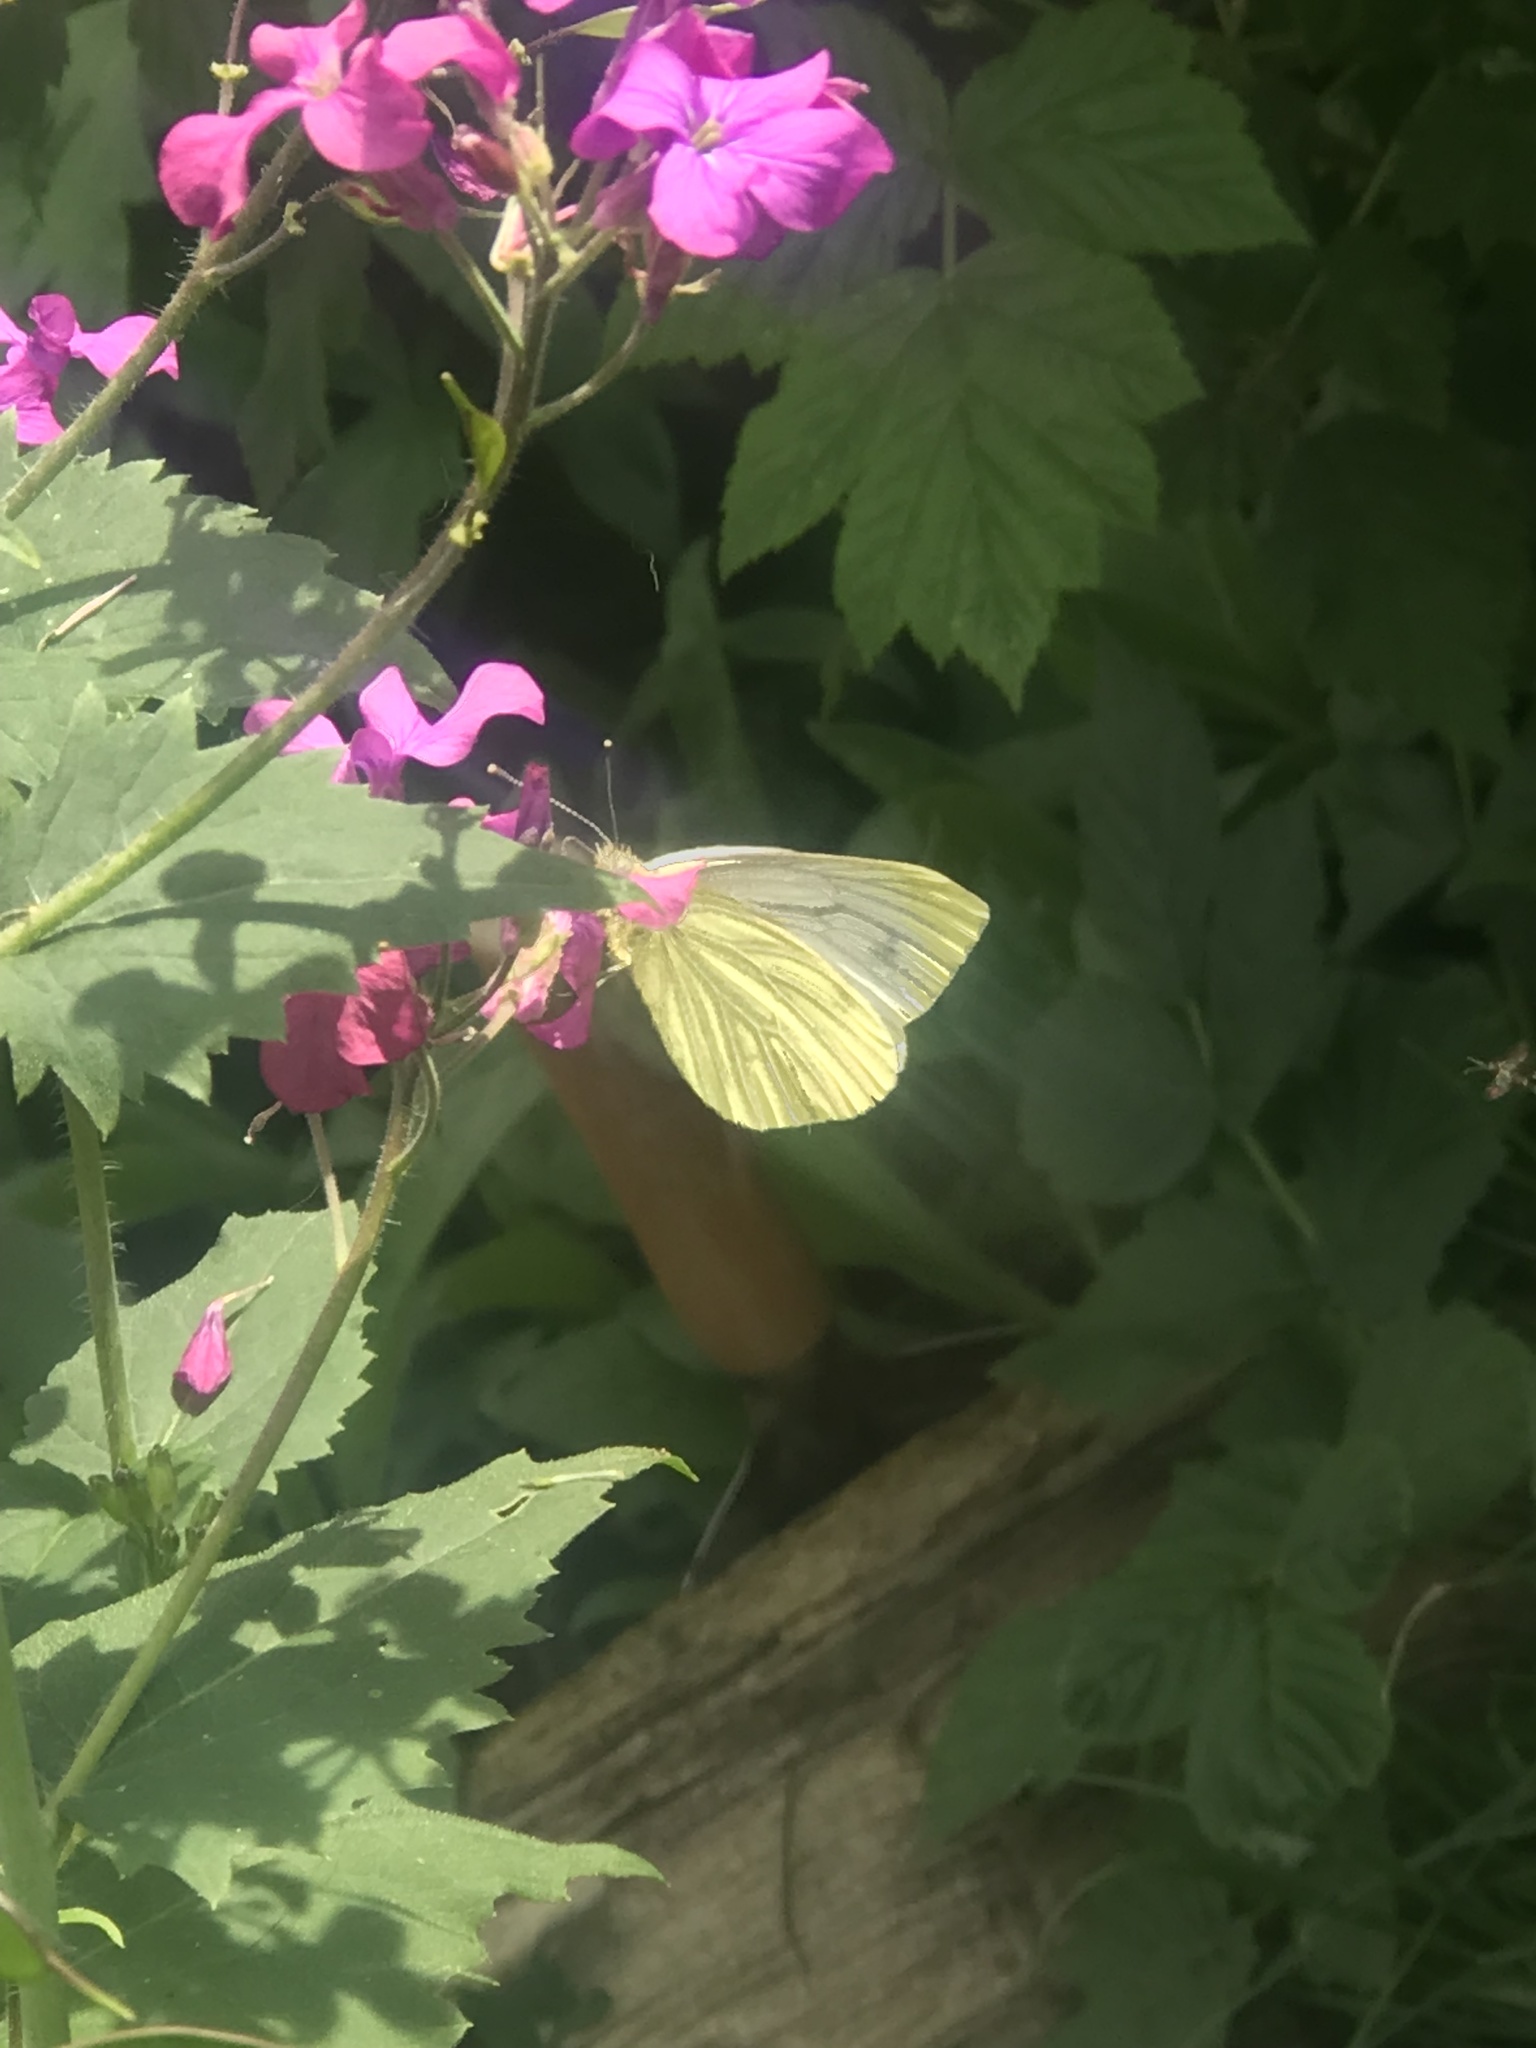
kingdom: Animalia
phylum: Arthropoda
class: Insecta
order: Lepidoptera
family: Pieridae
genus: Pieris
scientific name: Pieris napi
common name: Green-veined white
